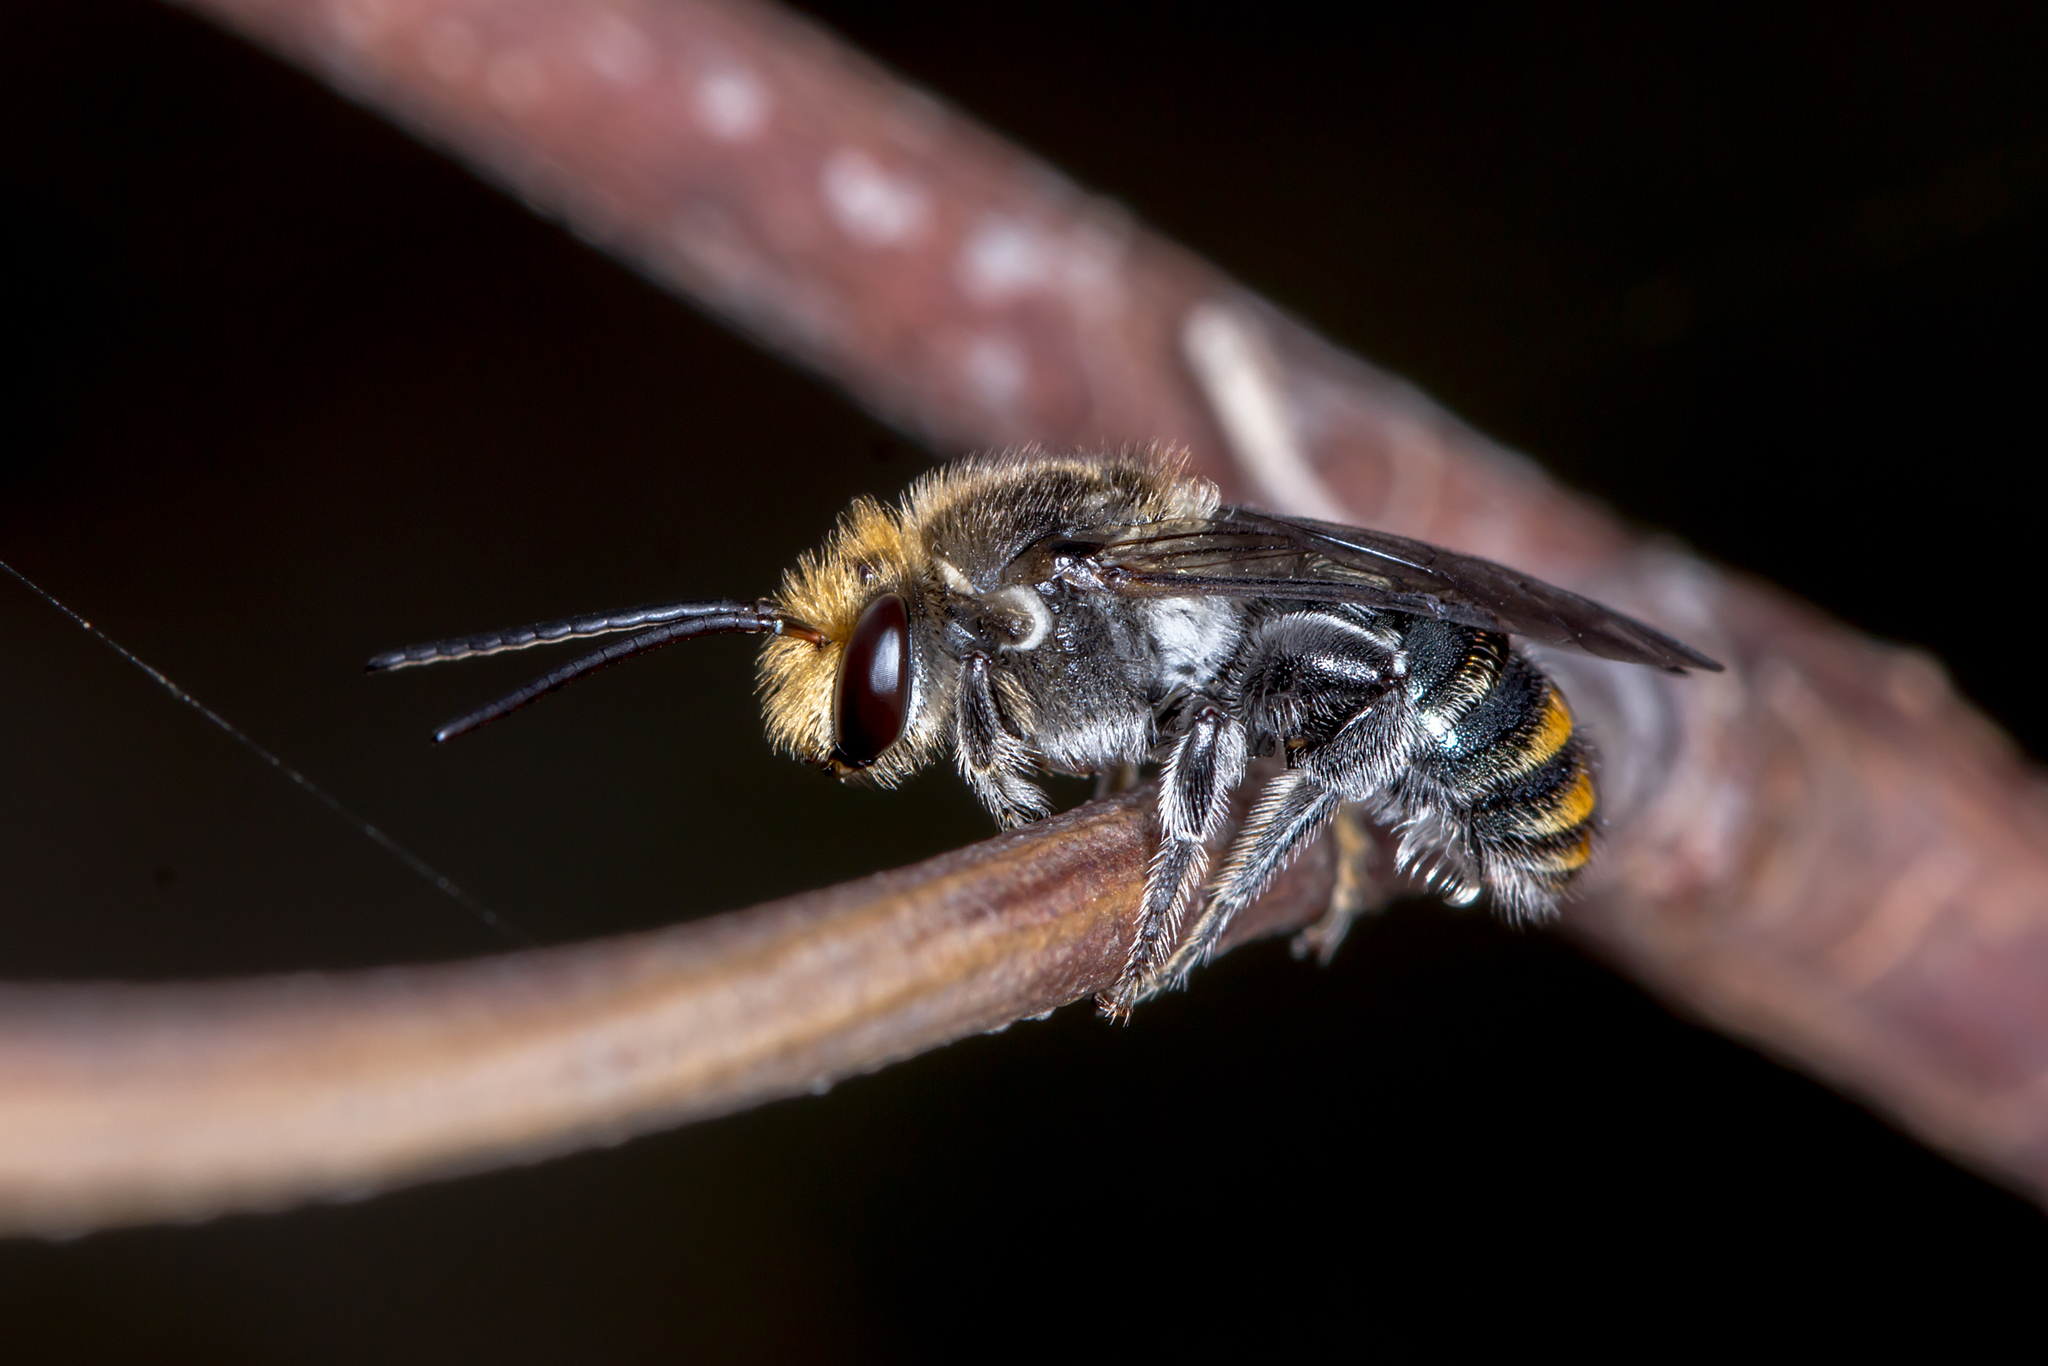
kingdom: Animalia
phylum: Arthropoda
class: Insecta
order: Hymenoptera
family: Halictidae
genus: Lipotriches
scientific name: Lipotriches australica
